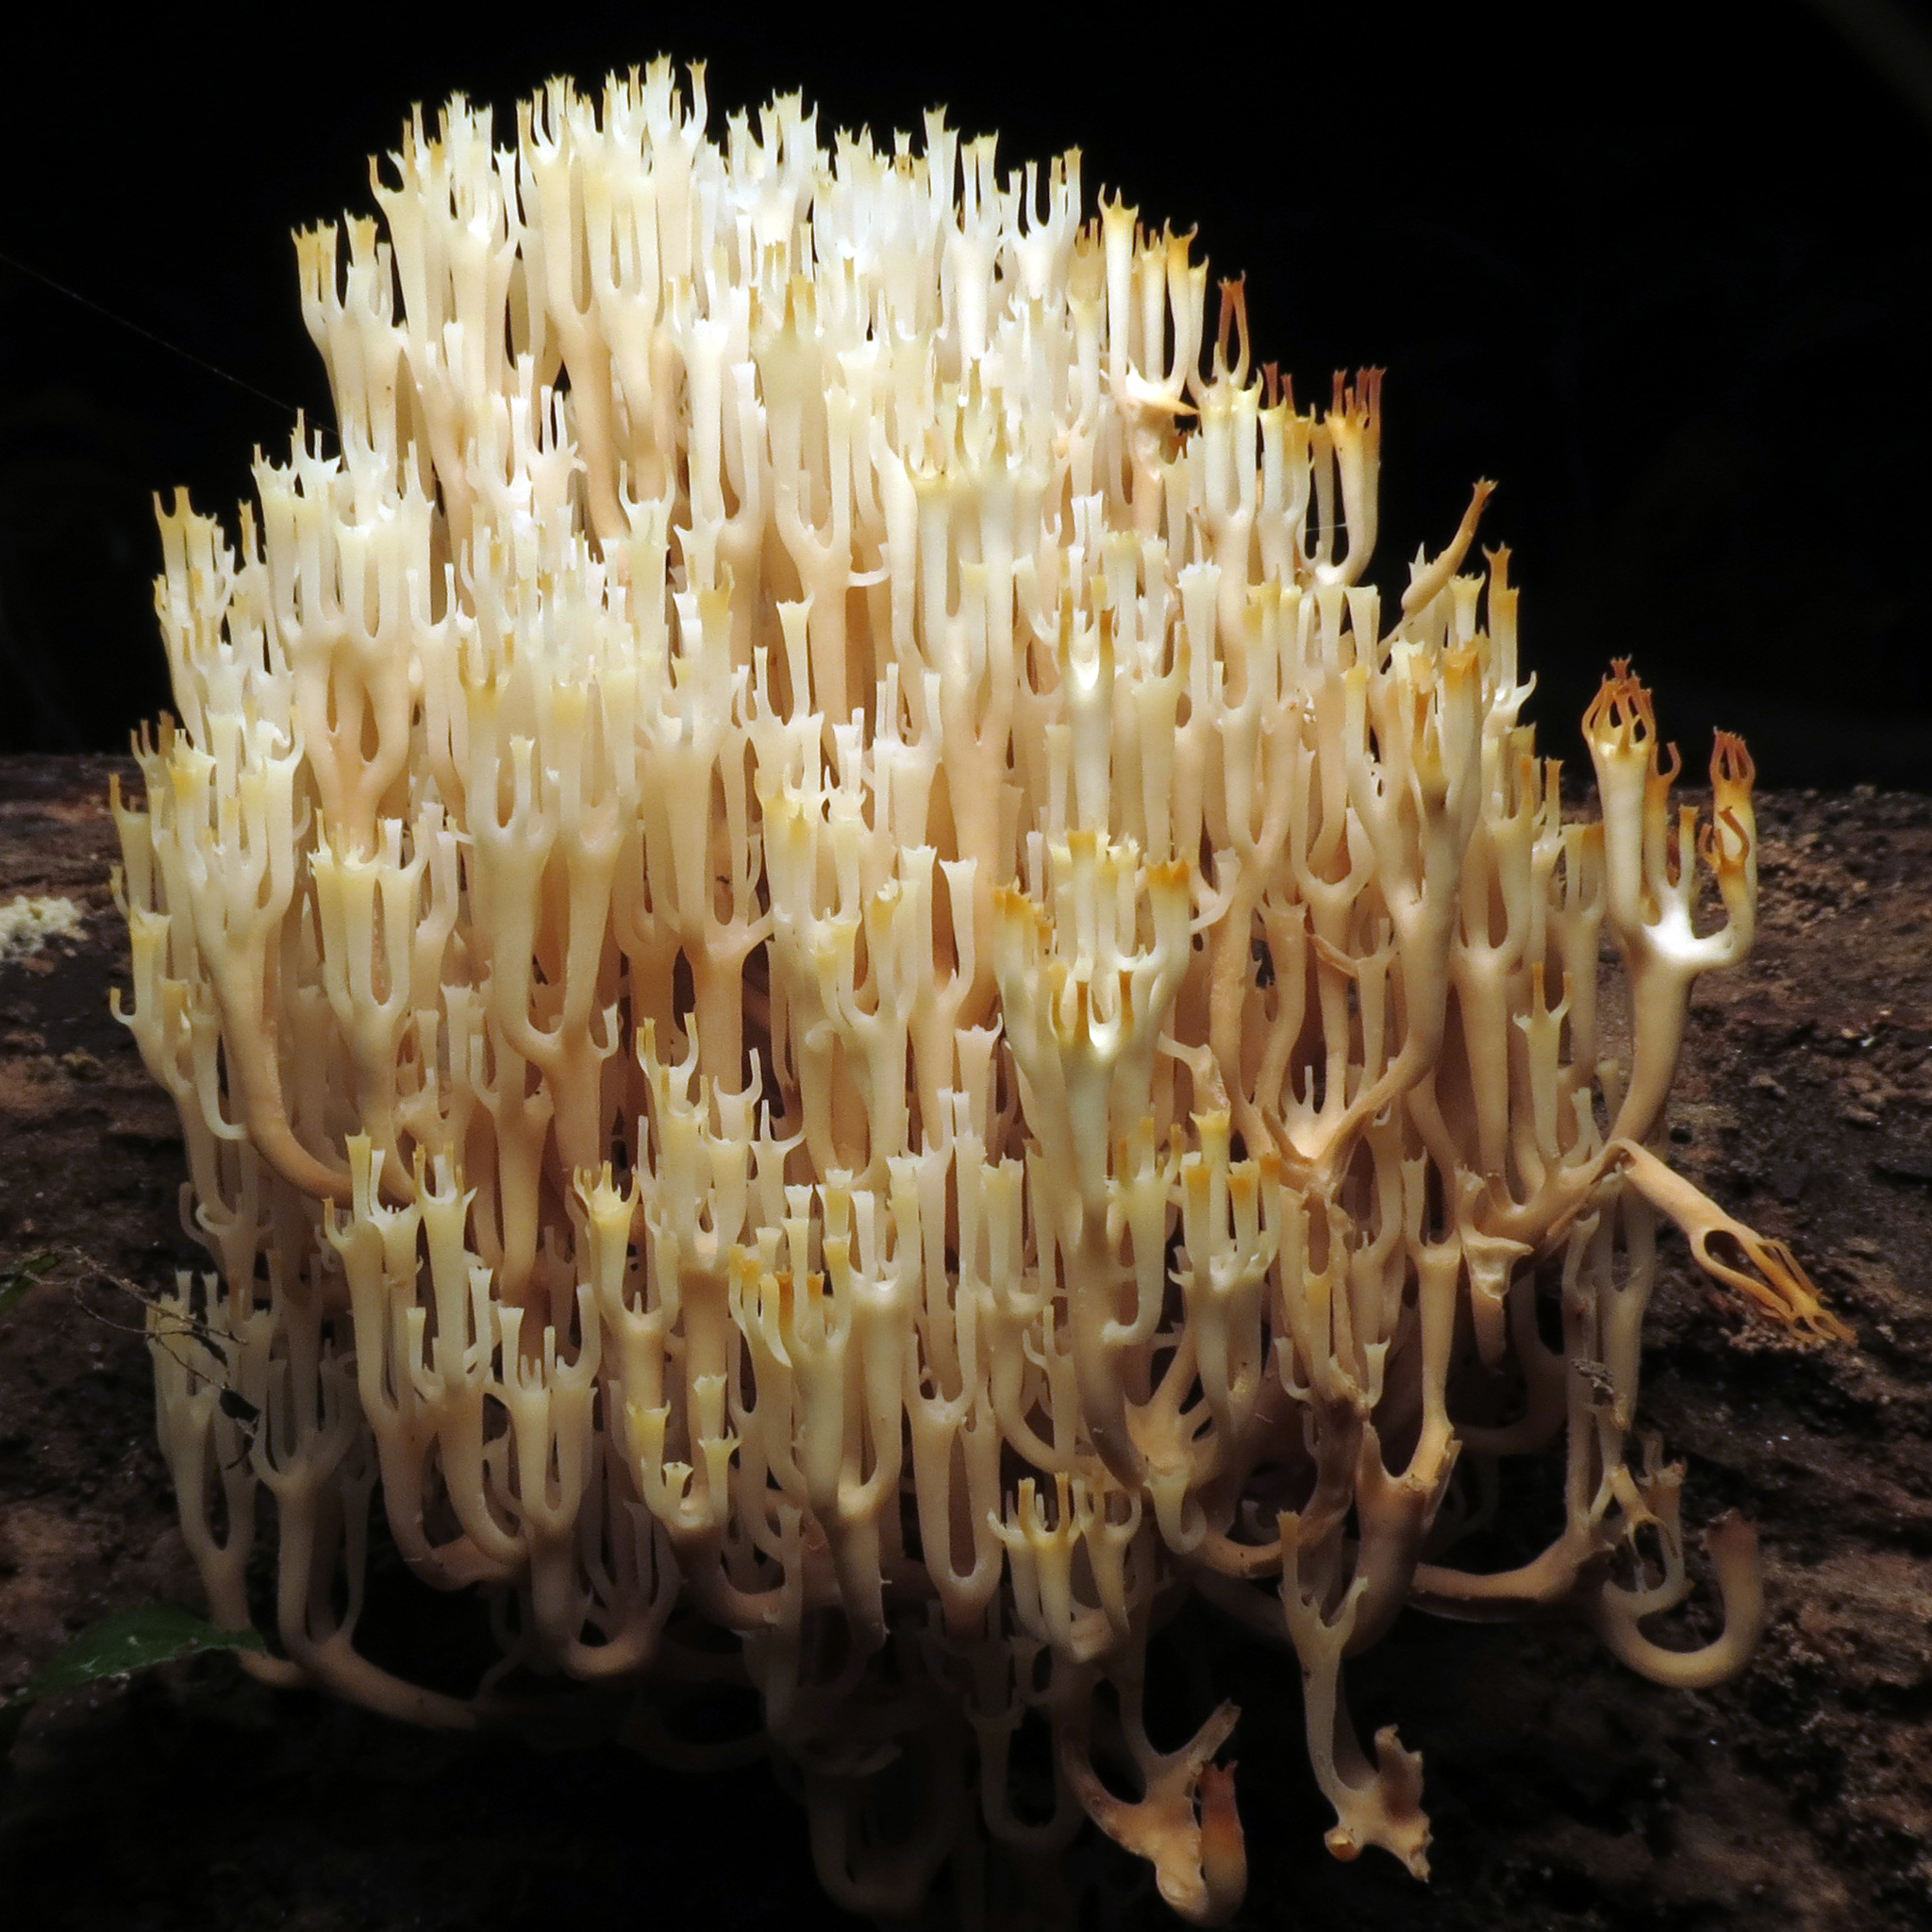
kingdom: Fungi
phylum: Basidiomycota
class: Agaricomycetes
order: Russulales
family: Auriscalpiaceae
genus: Artomyces
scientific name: Artomyces pyxidatus
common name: Crown-tipped coral fungus
